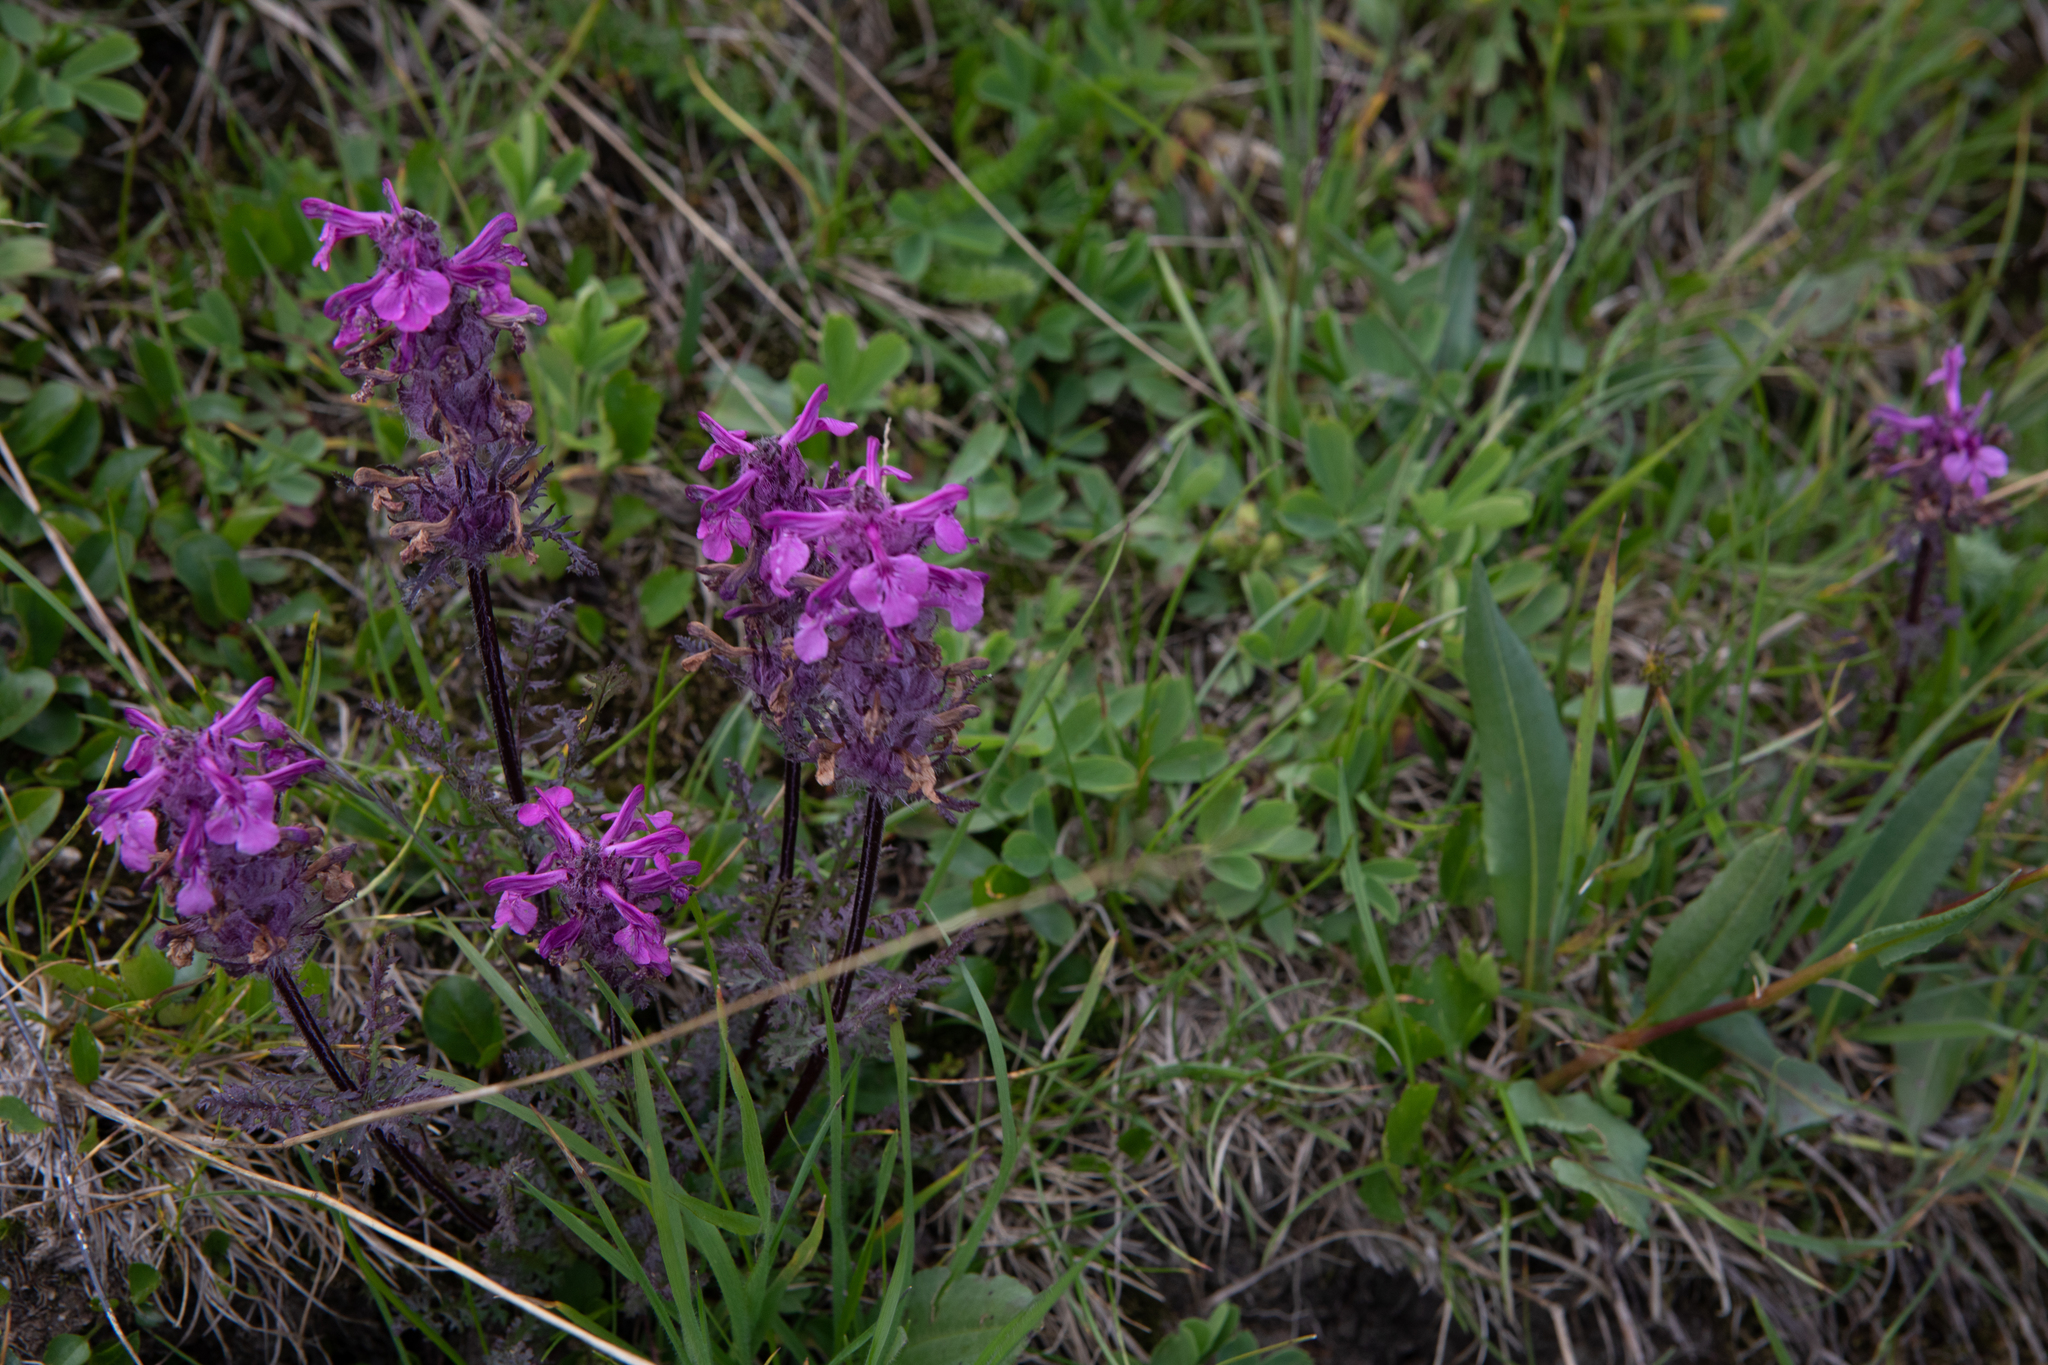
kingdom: Plantae
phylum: Tracheophyta
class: Magnoliopsida
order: Lamiales
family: Orobanchaceae
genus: Pedicularis
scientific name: Pedicularis anthemifolia
